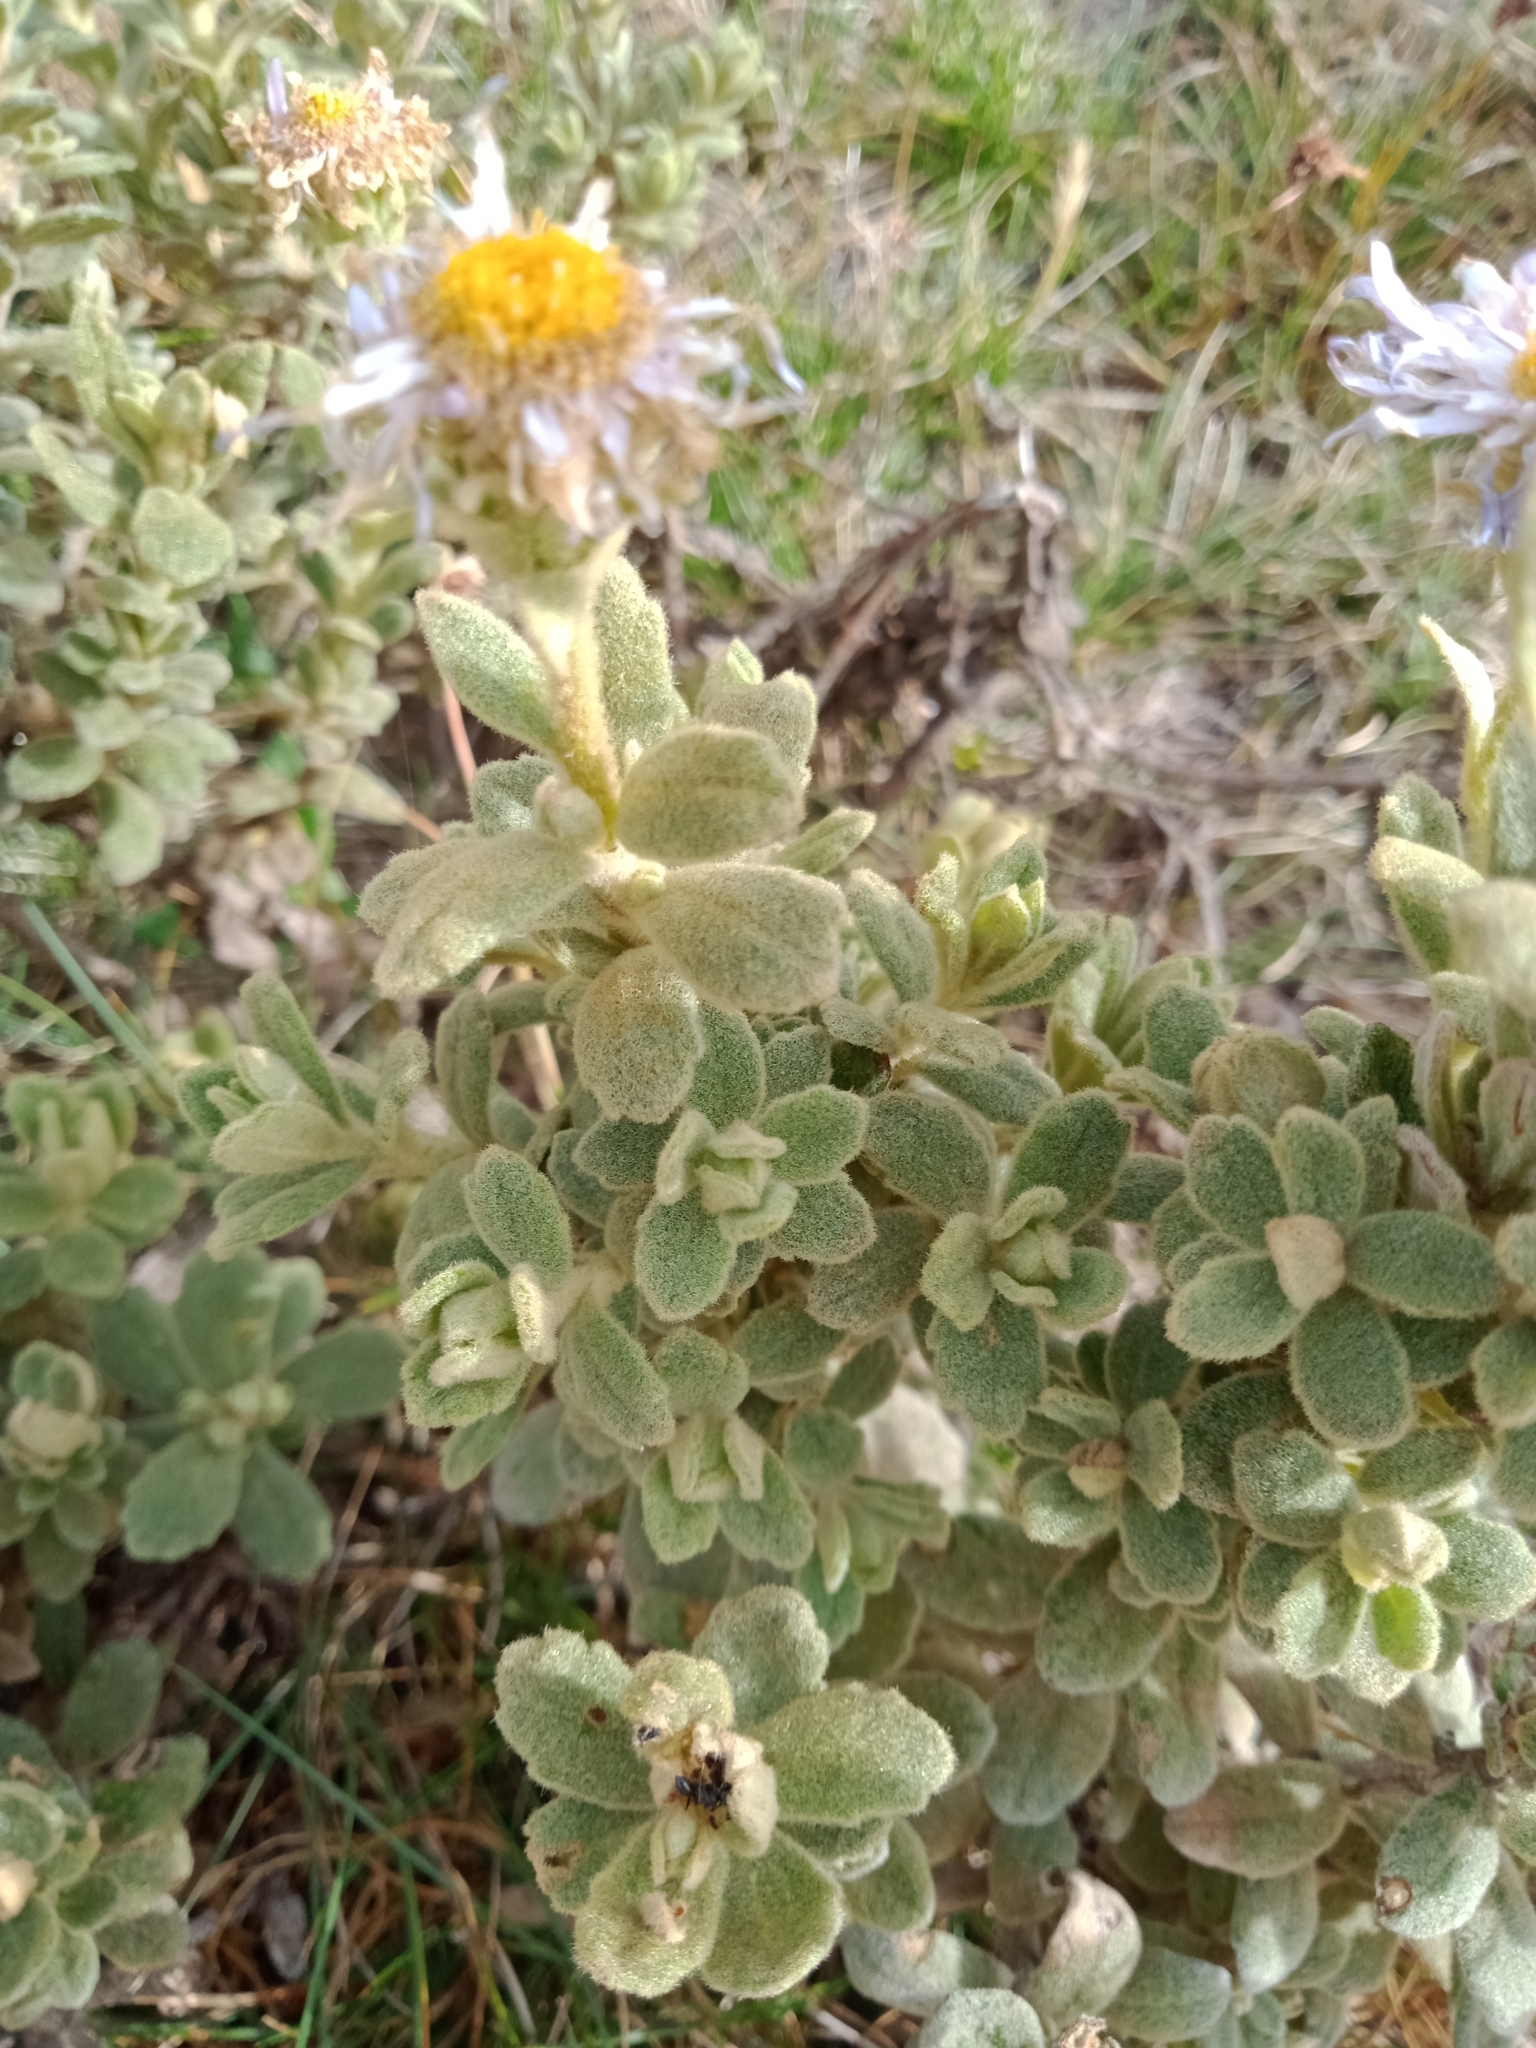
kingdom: Plantae
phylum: Tracheophyta
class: Magnoliopsida
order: Asterales
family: Asteraceae
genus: Olearia
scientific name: Olearia frostii
